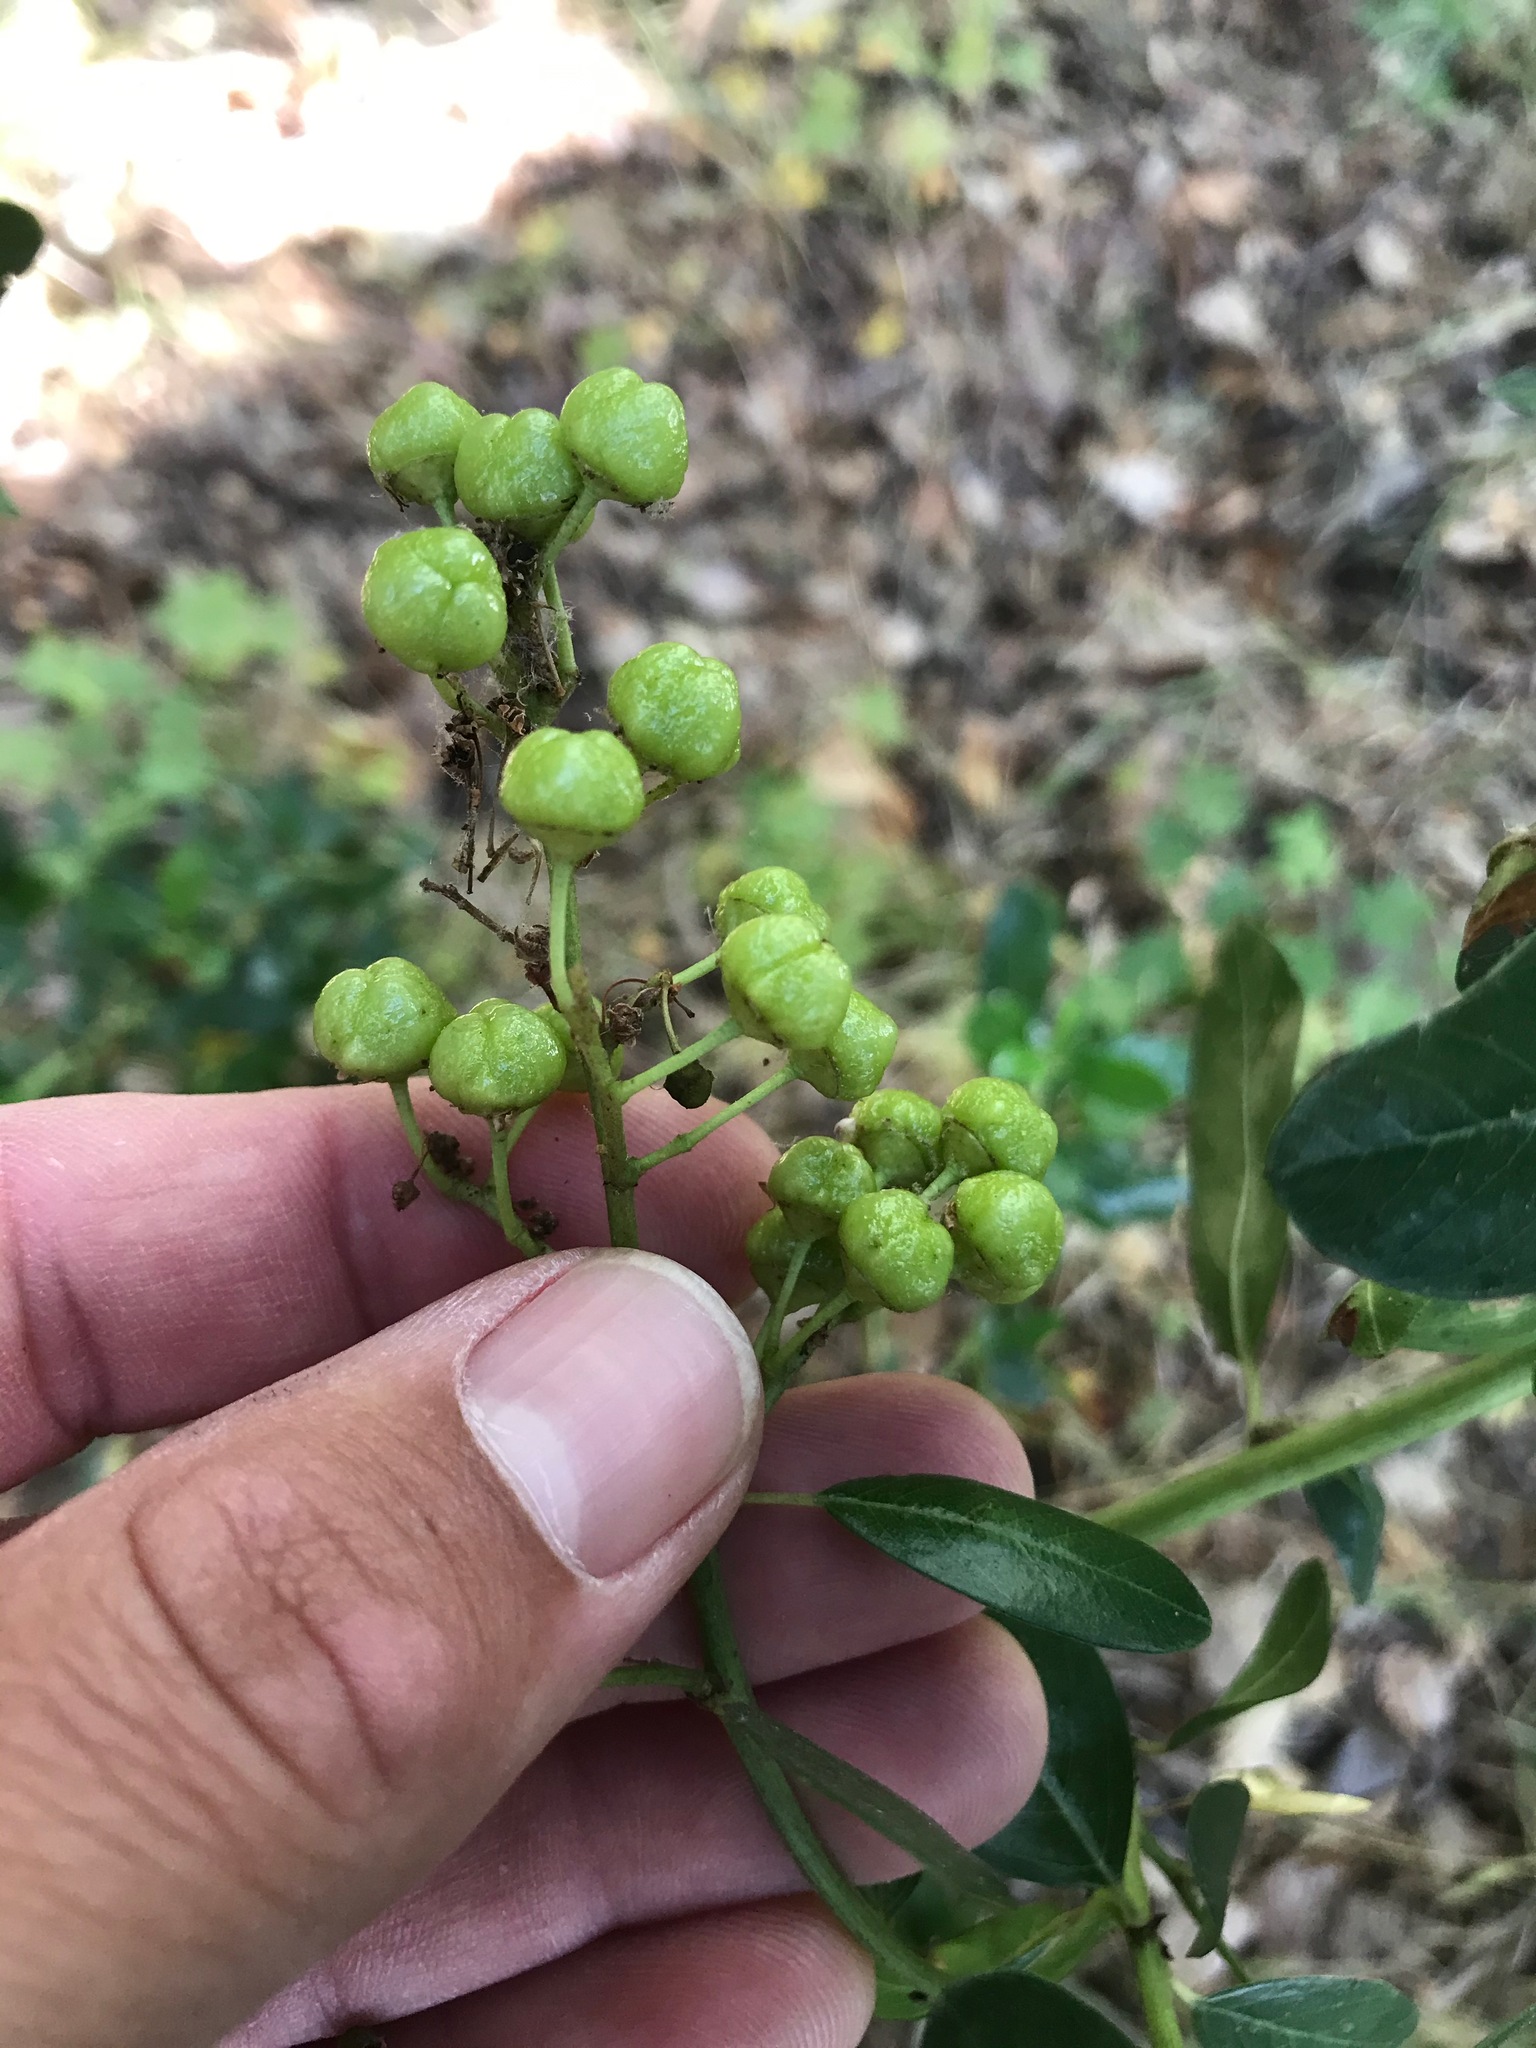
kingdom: Plantae
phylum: Tracheophyta
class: Magnoliopsida
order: Rosales
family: Rhamnaceae
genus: Ceanothus
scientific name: Ceanothus spinosus
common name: Greenbark whitethorn
